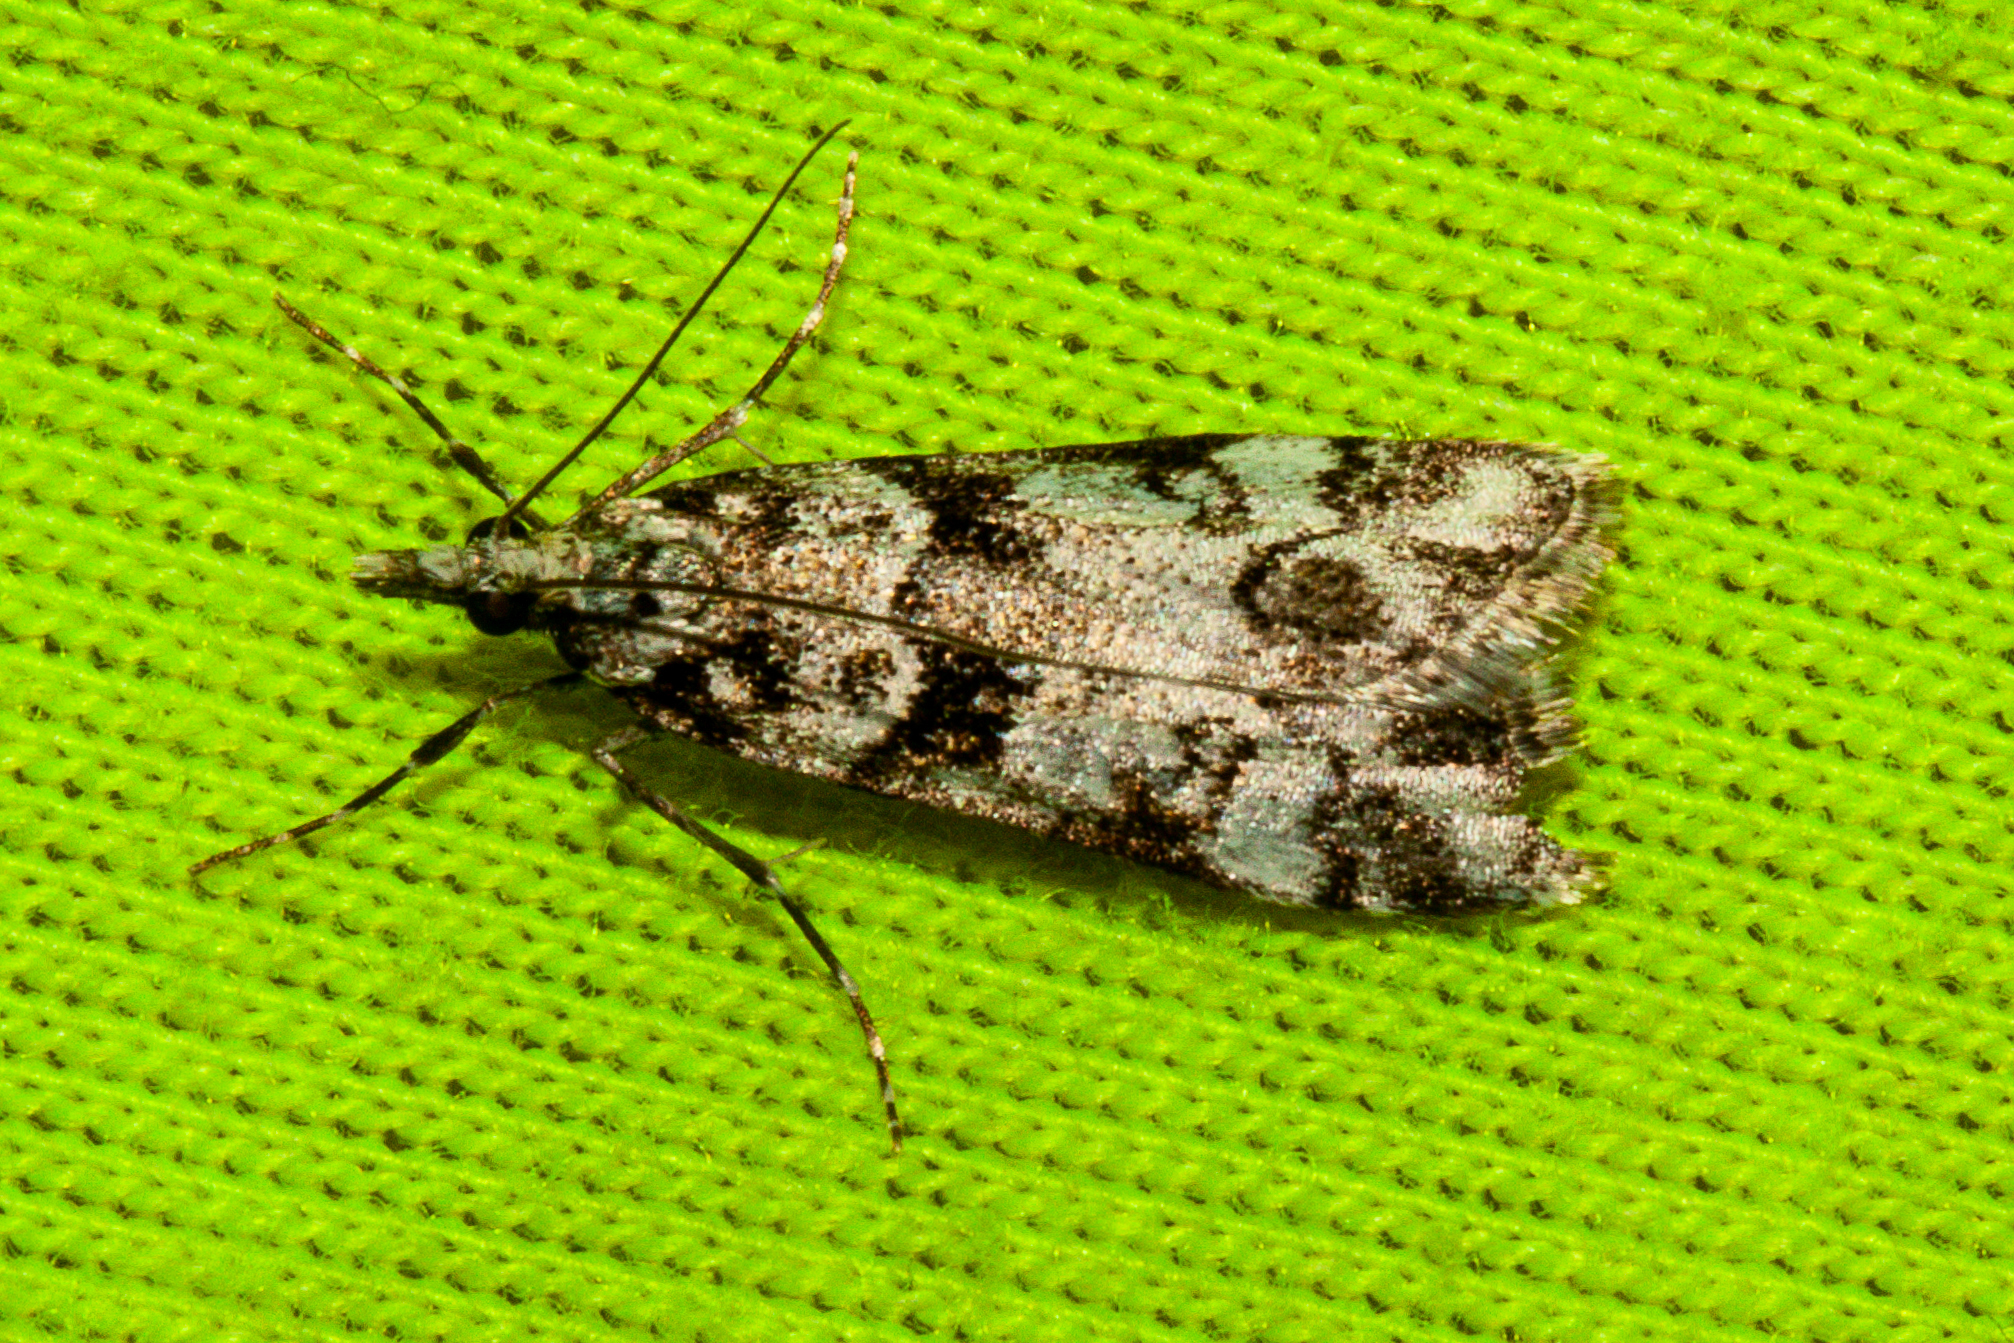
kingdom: Animalia
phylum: Arthropoda
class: Insecta
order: Lepidoptera
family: Crambidae
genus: Eudonia
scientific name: Eudonia torodes
